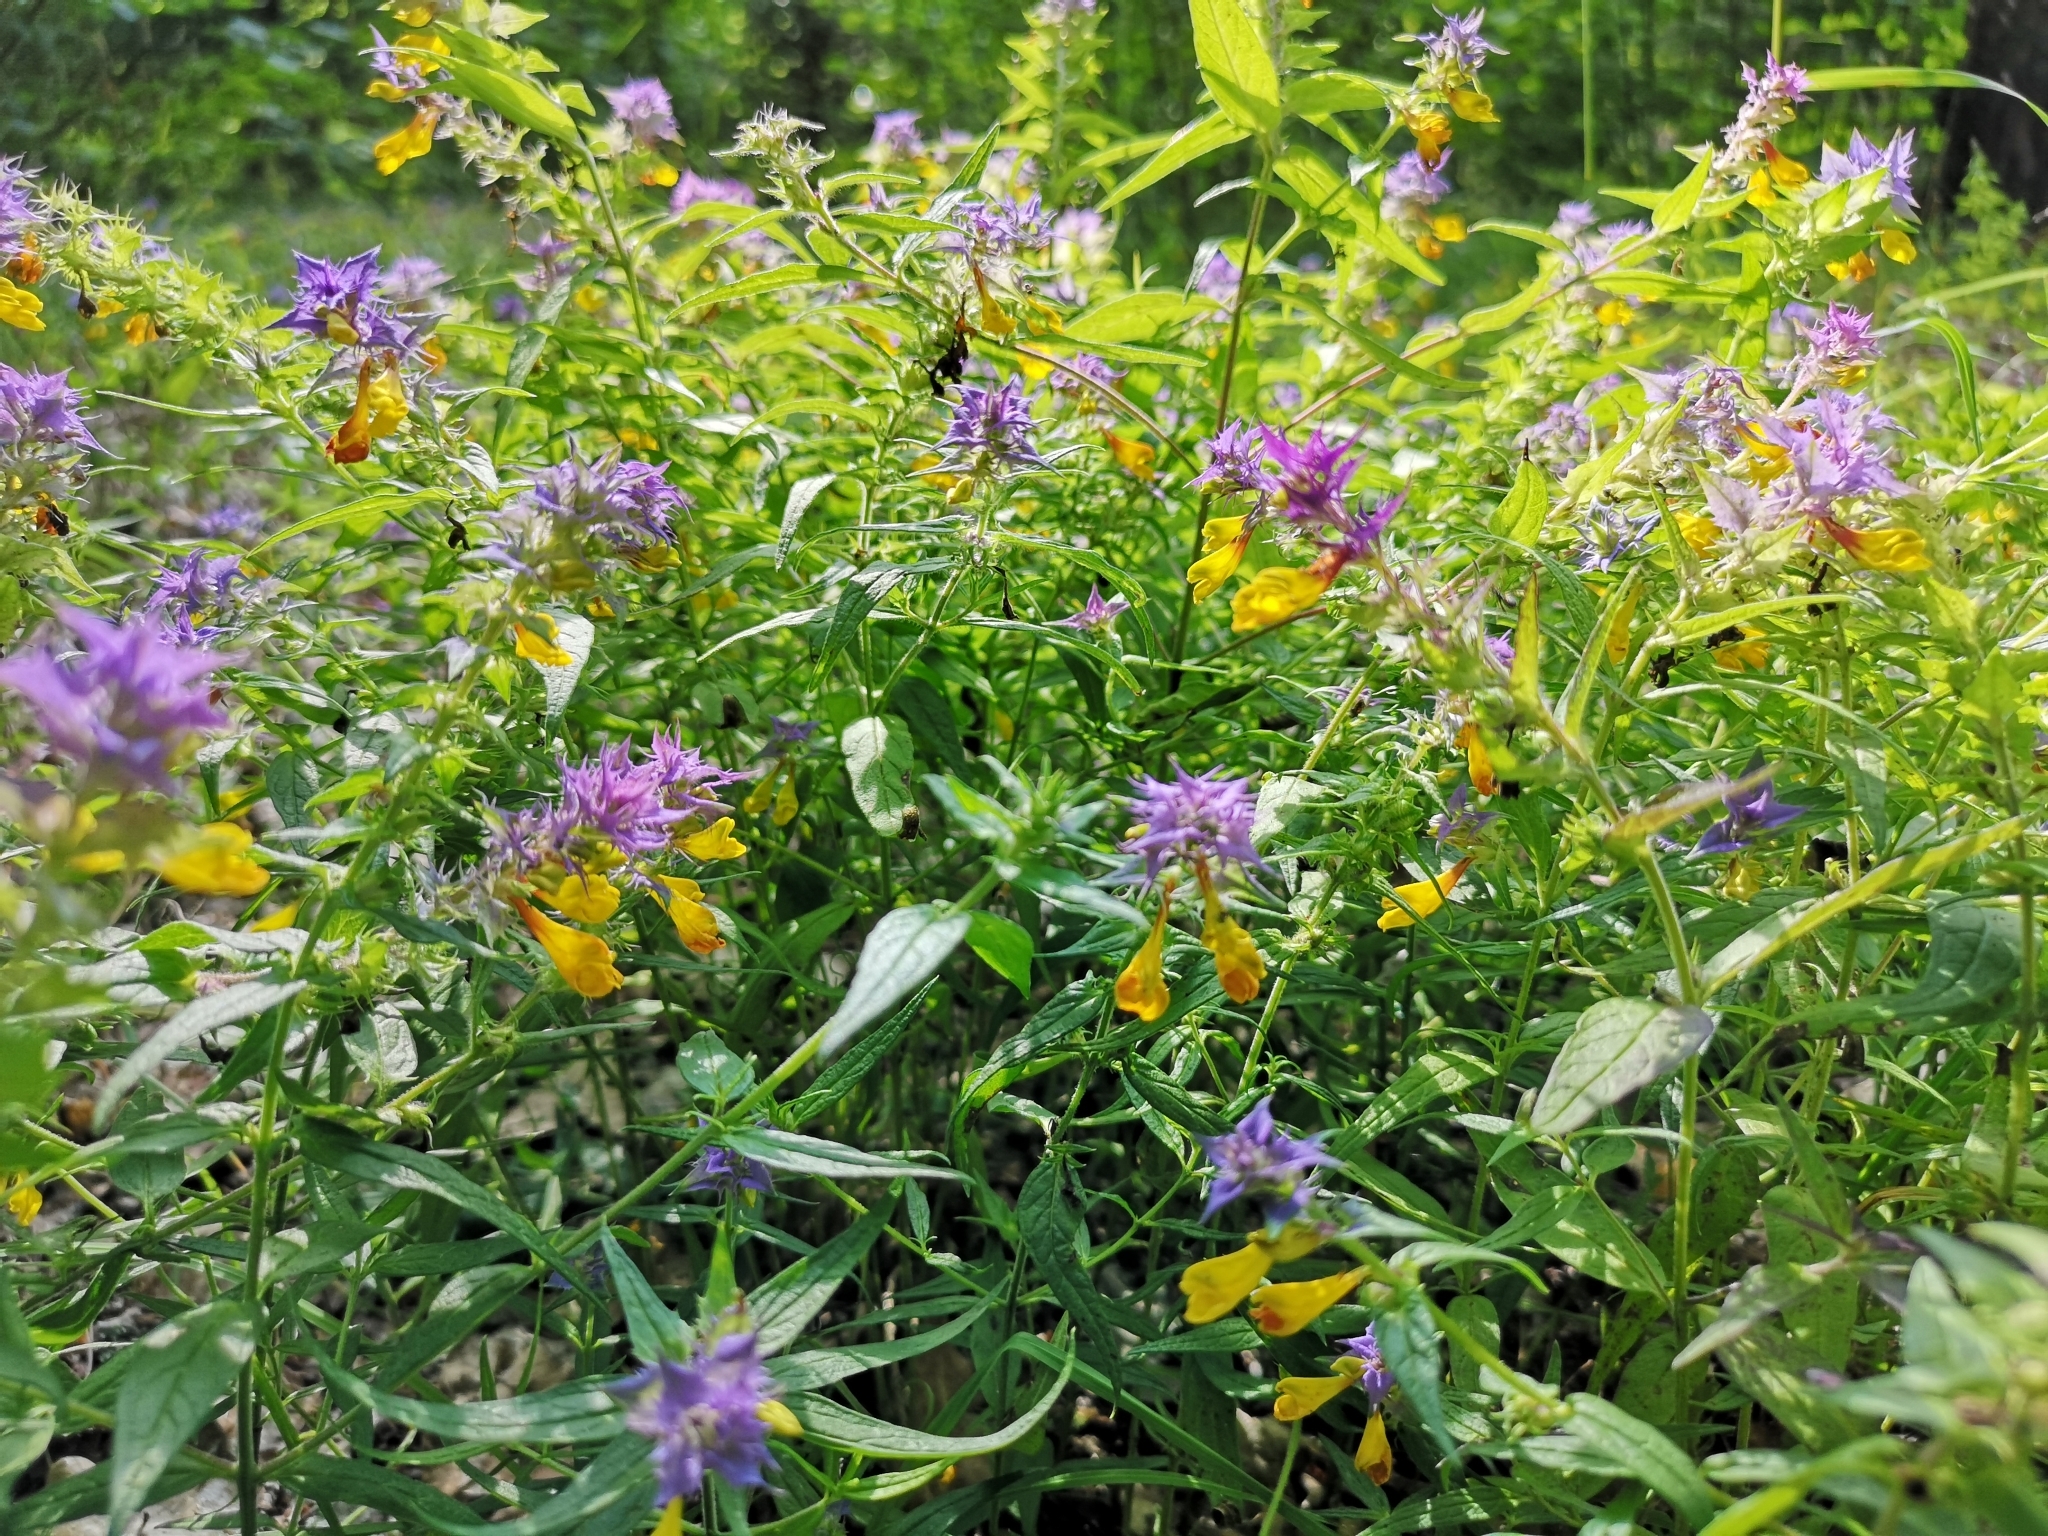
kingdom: Plantae
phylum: Tracheophyta
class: Magnoliopsida
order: Lamiales
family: Orobanchaceae
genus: Melampyrum
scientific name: Melampyrum nemorosum
